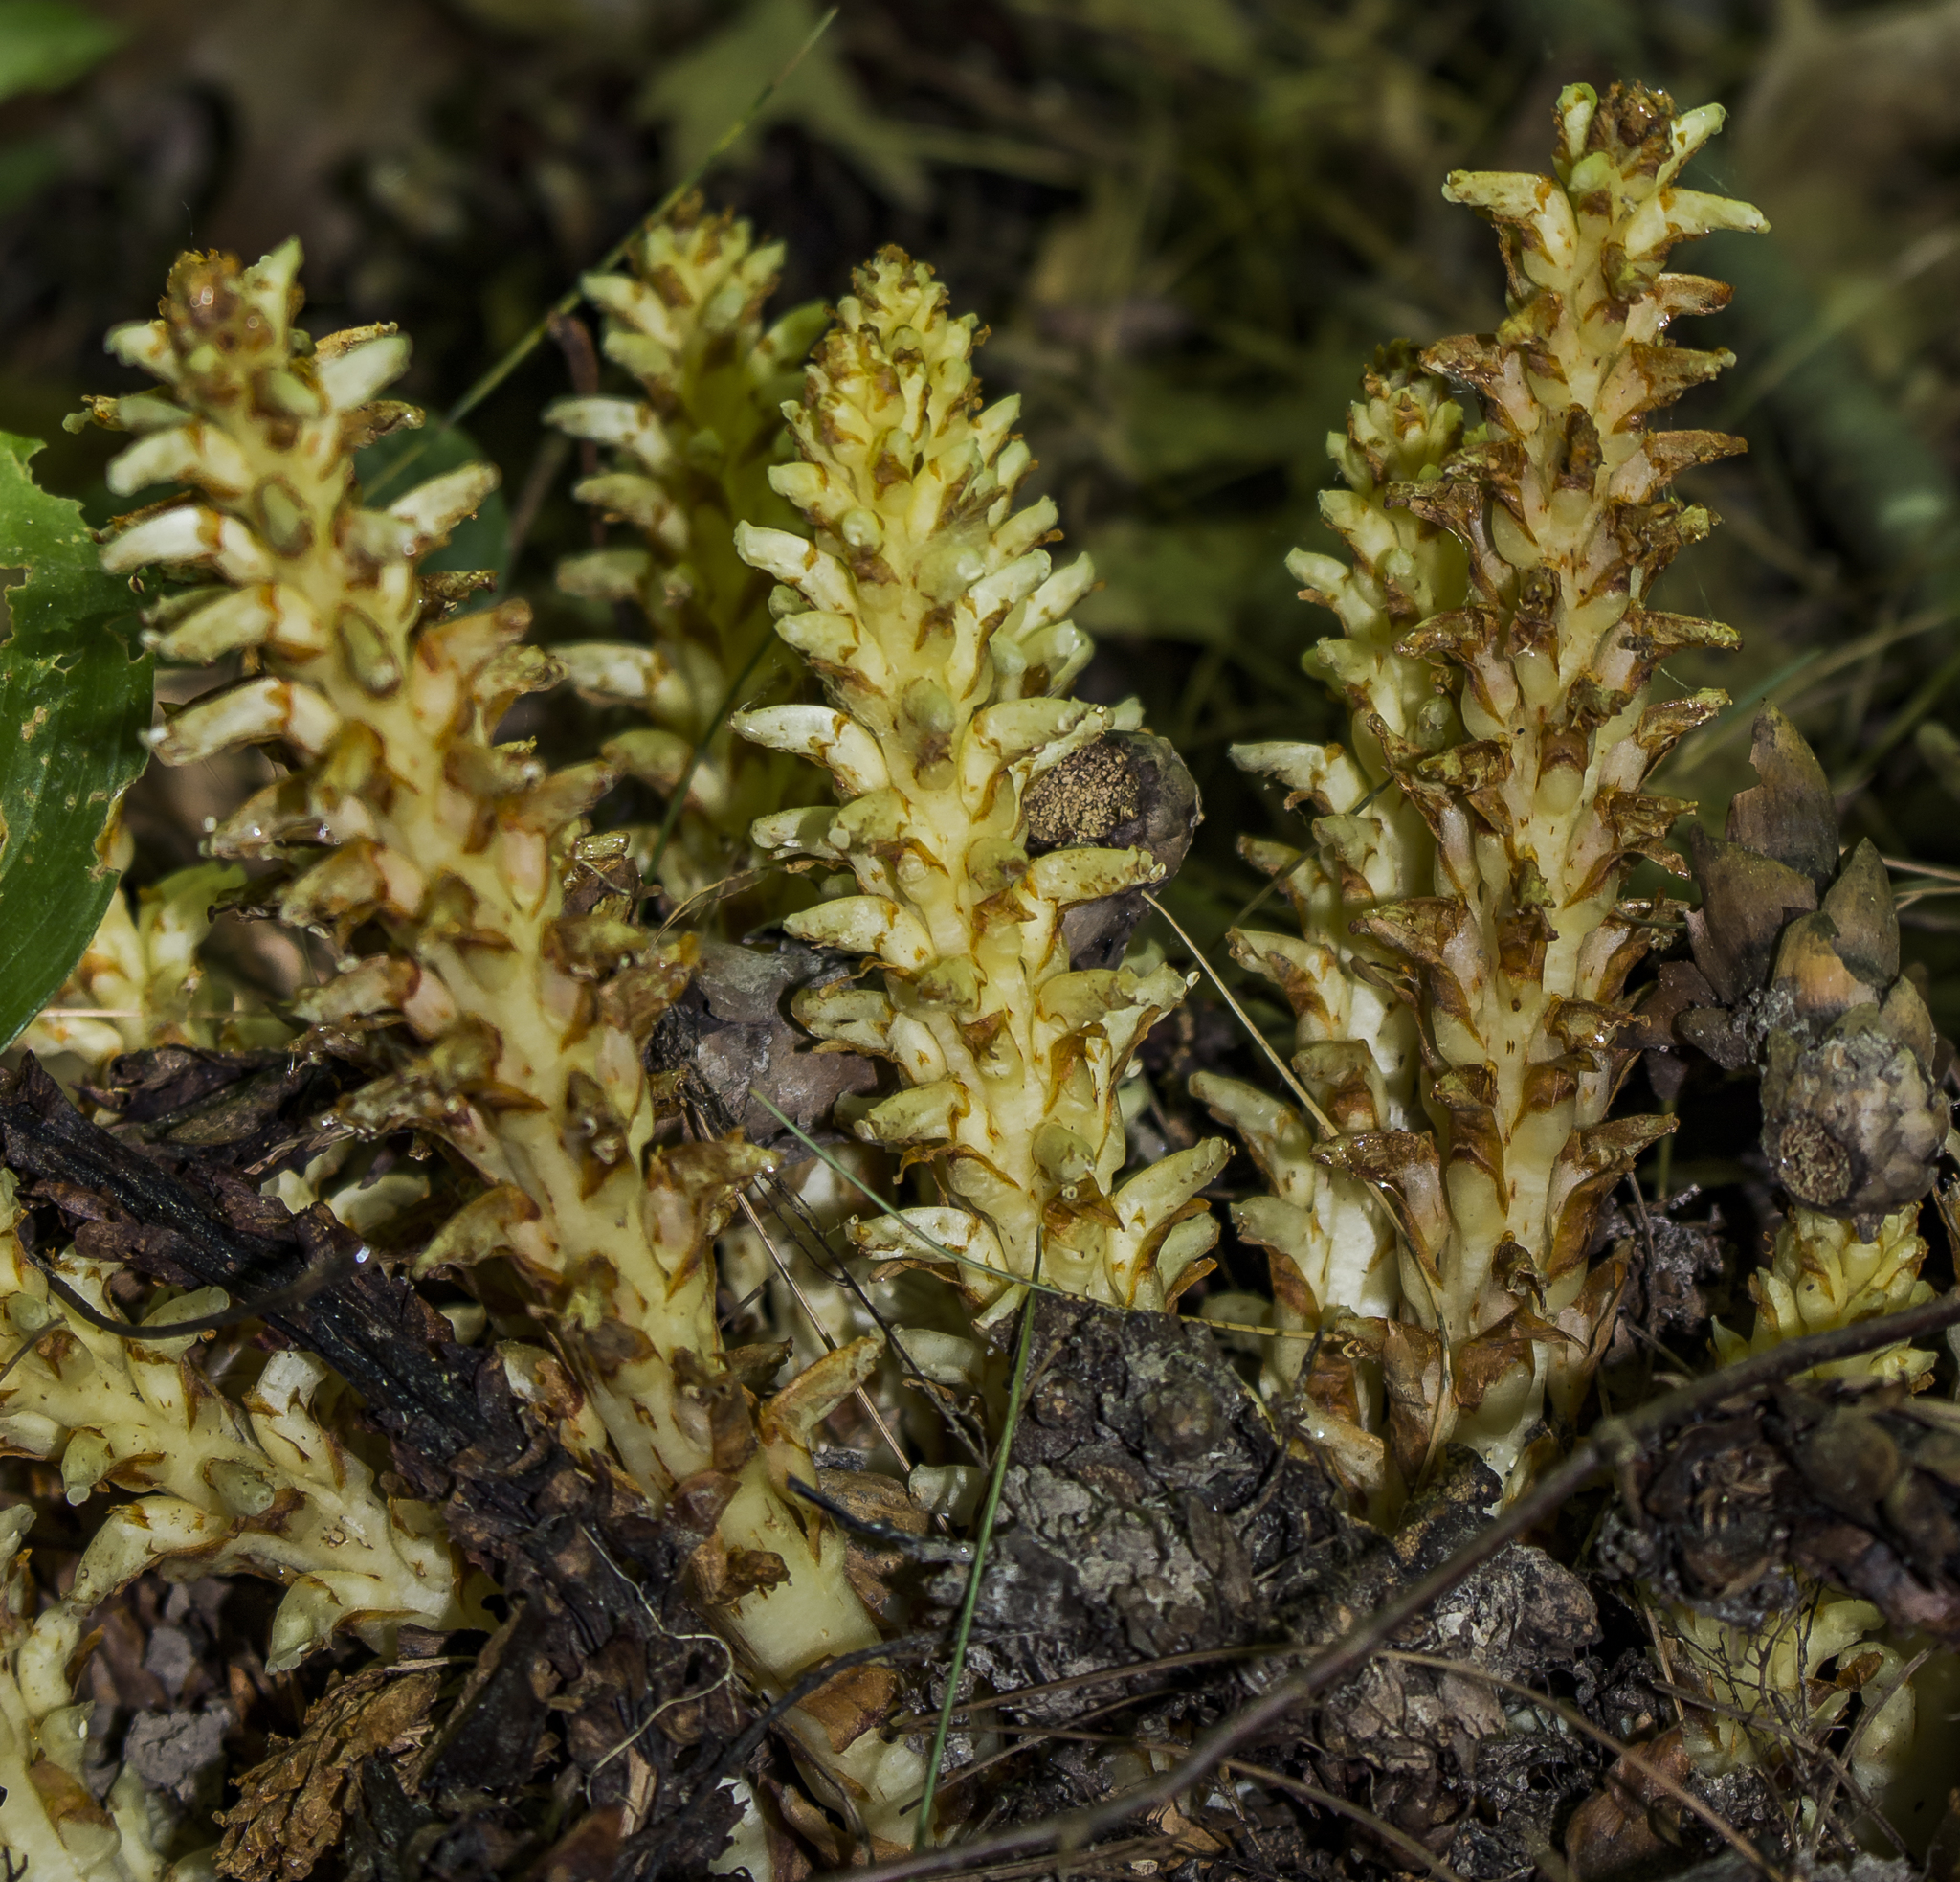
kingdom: Plantae
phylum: Tracheophyta
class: Magnoliopsida
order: Lamiales
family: Orobanchaceae
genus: Conopholis
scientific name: Conopholis americana
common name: American cancer-root
